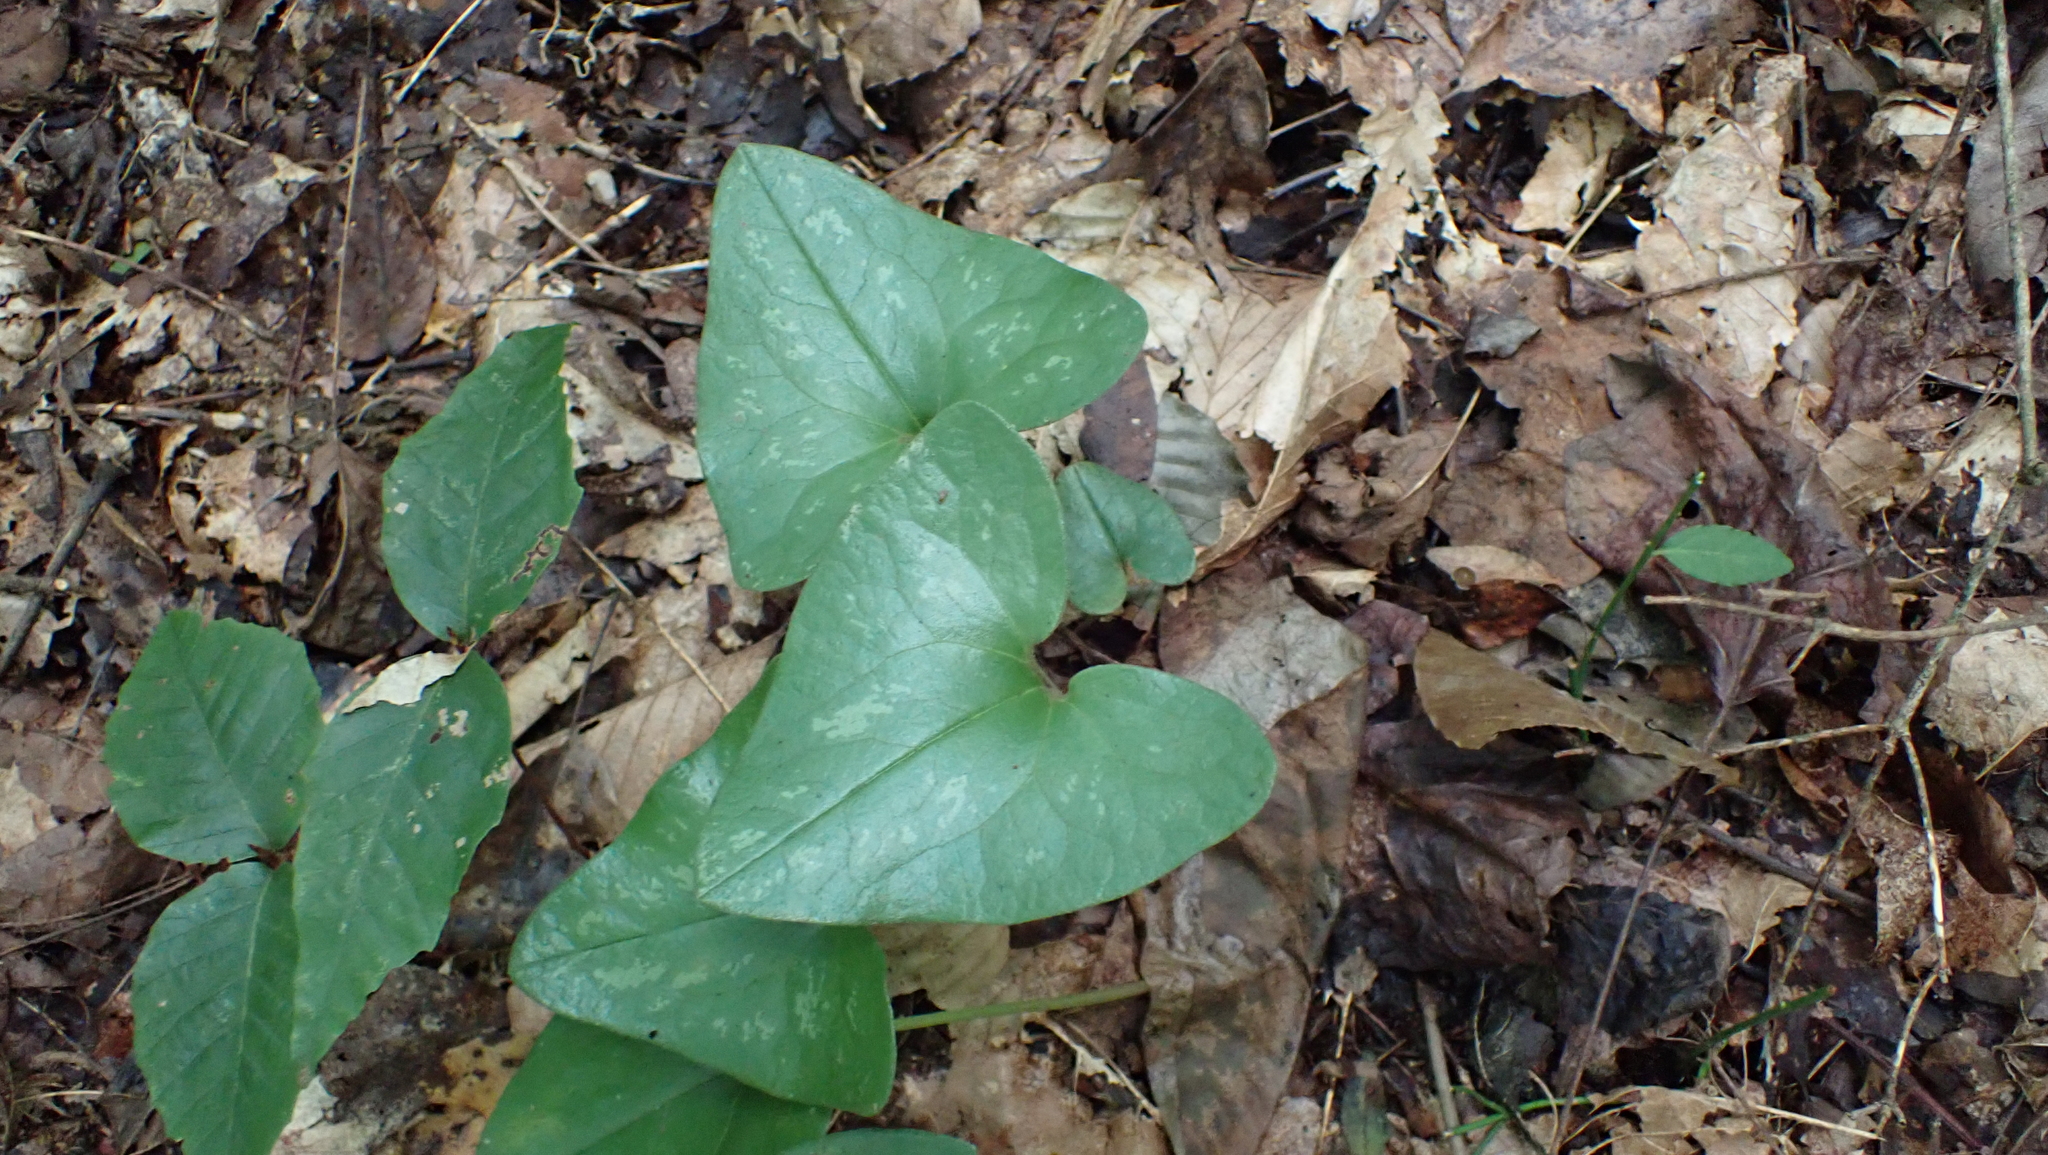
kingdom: Plantae
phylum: Tracheophyta
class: Magnoliopsida
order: Piperales
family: Aristolochiaceae
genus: Hexastylis
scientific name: Hexastylis arifolia
